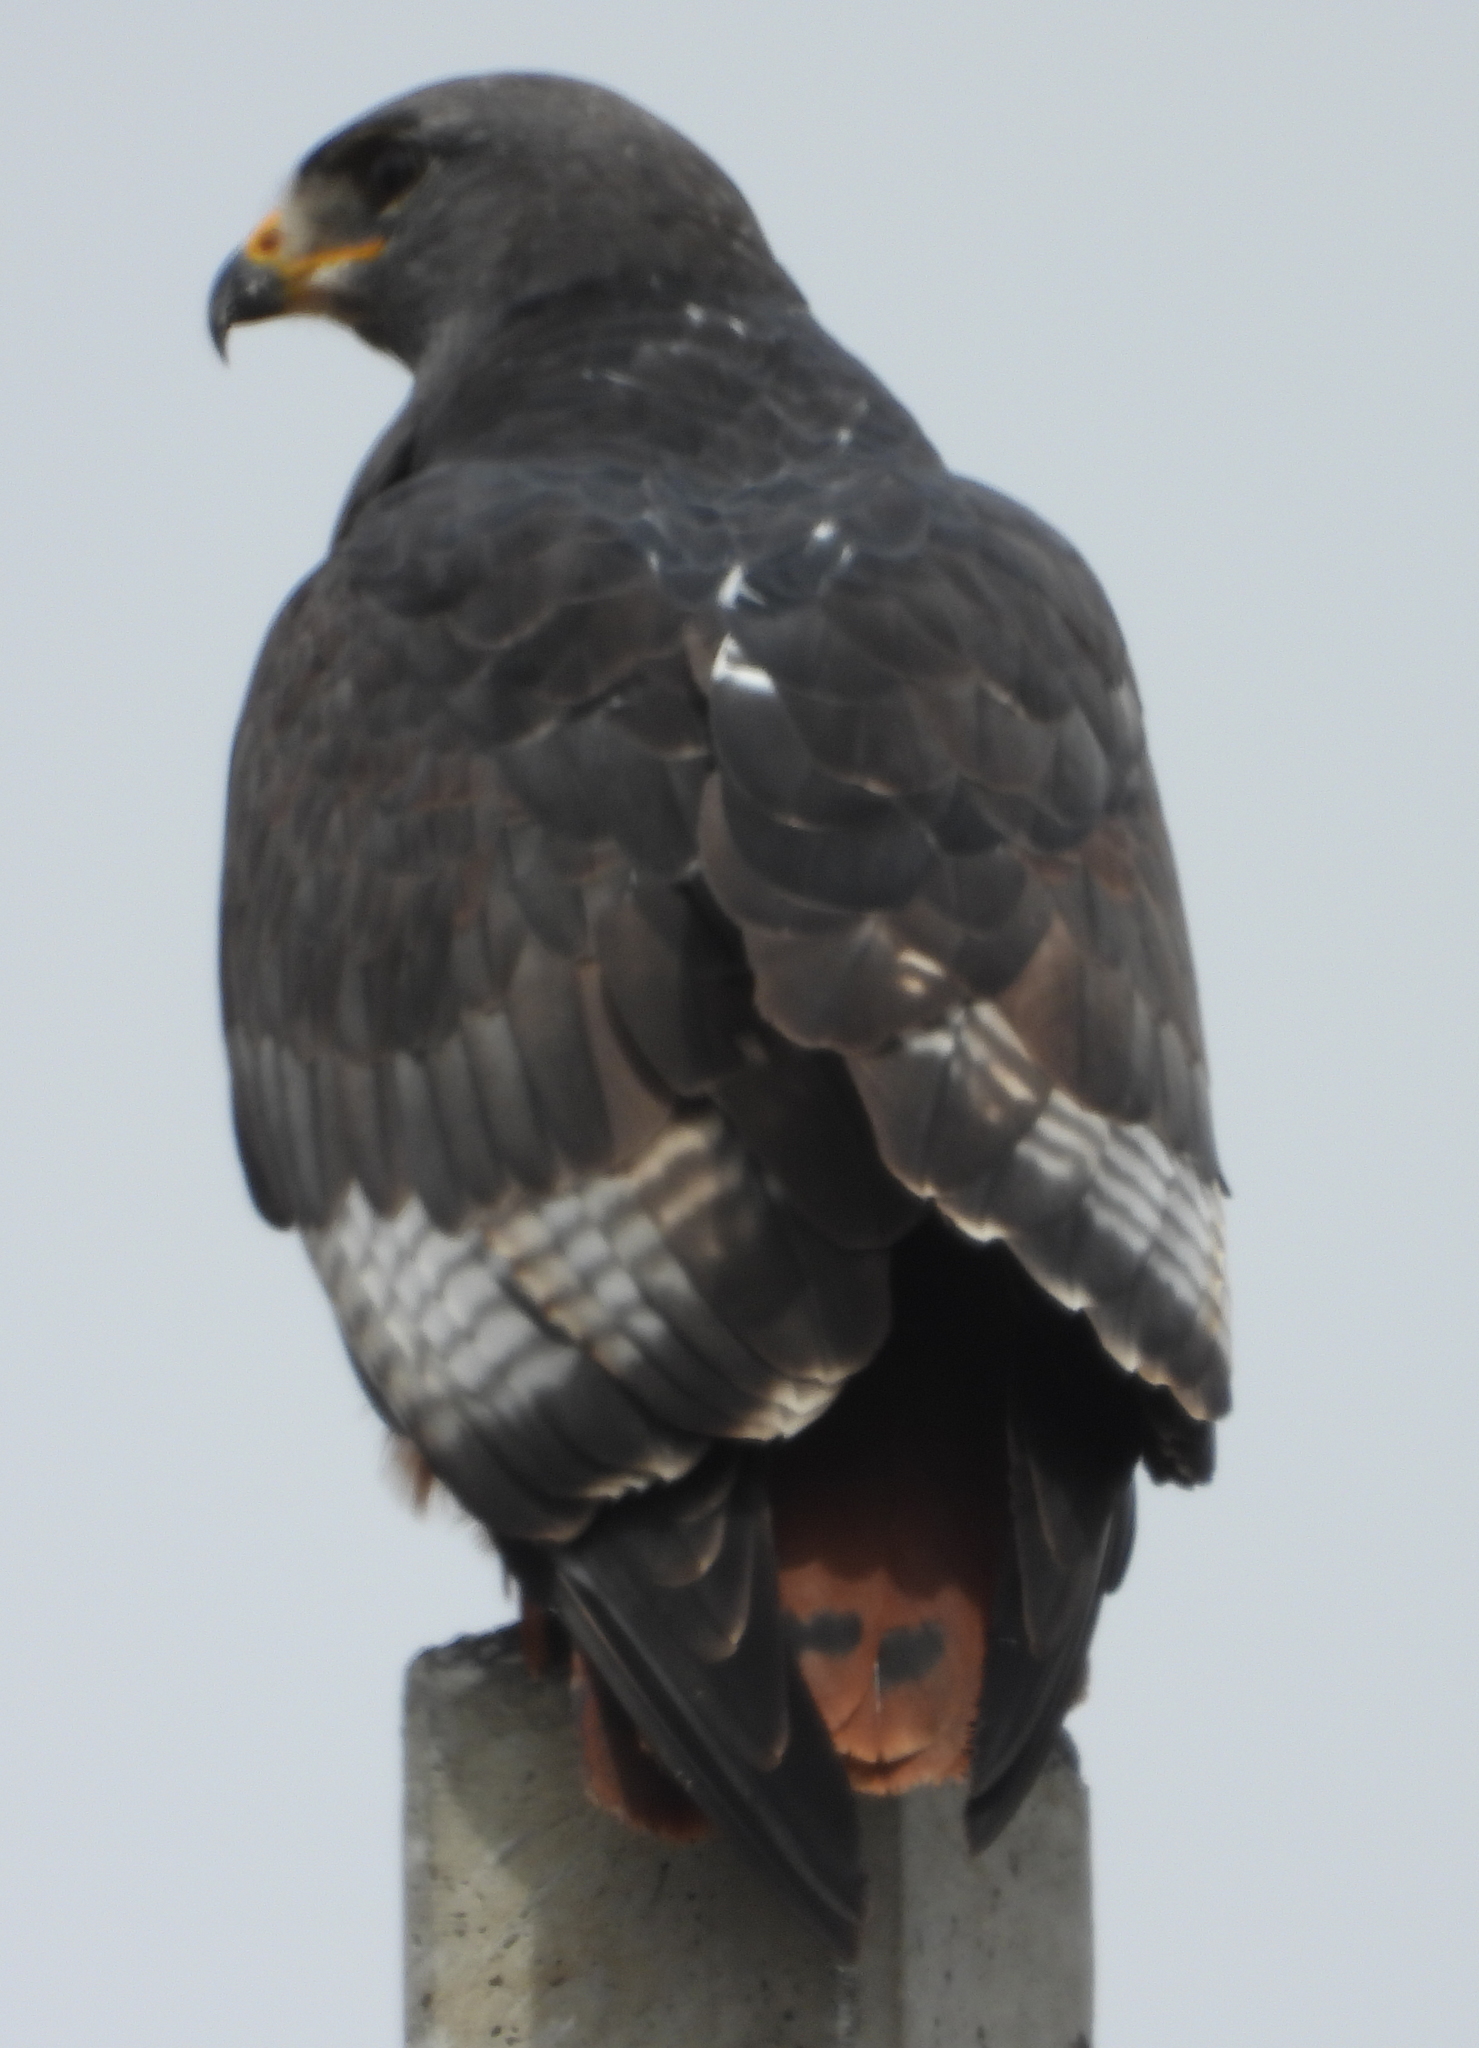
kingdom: Animalia
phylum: Chordata
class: Aves
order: Accipitriformes
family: Accipitridae
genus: Buteo
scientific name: Buteo rufofuscus
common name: Jackal buzzard
